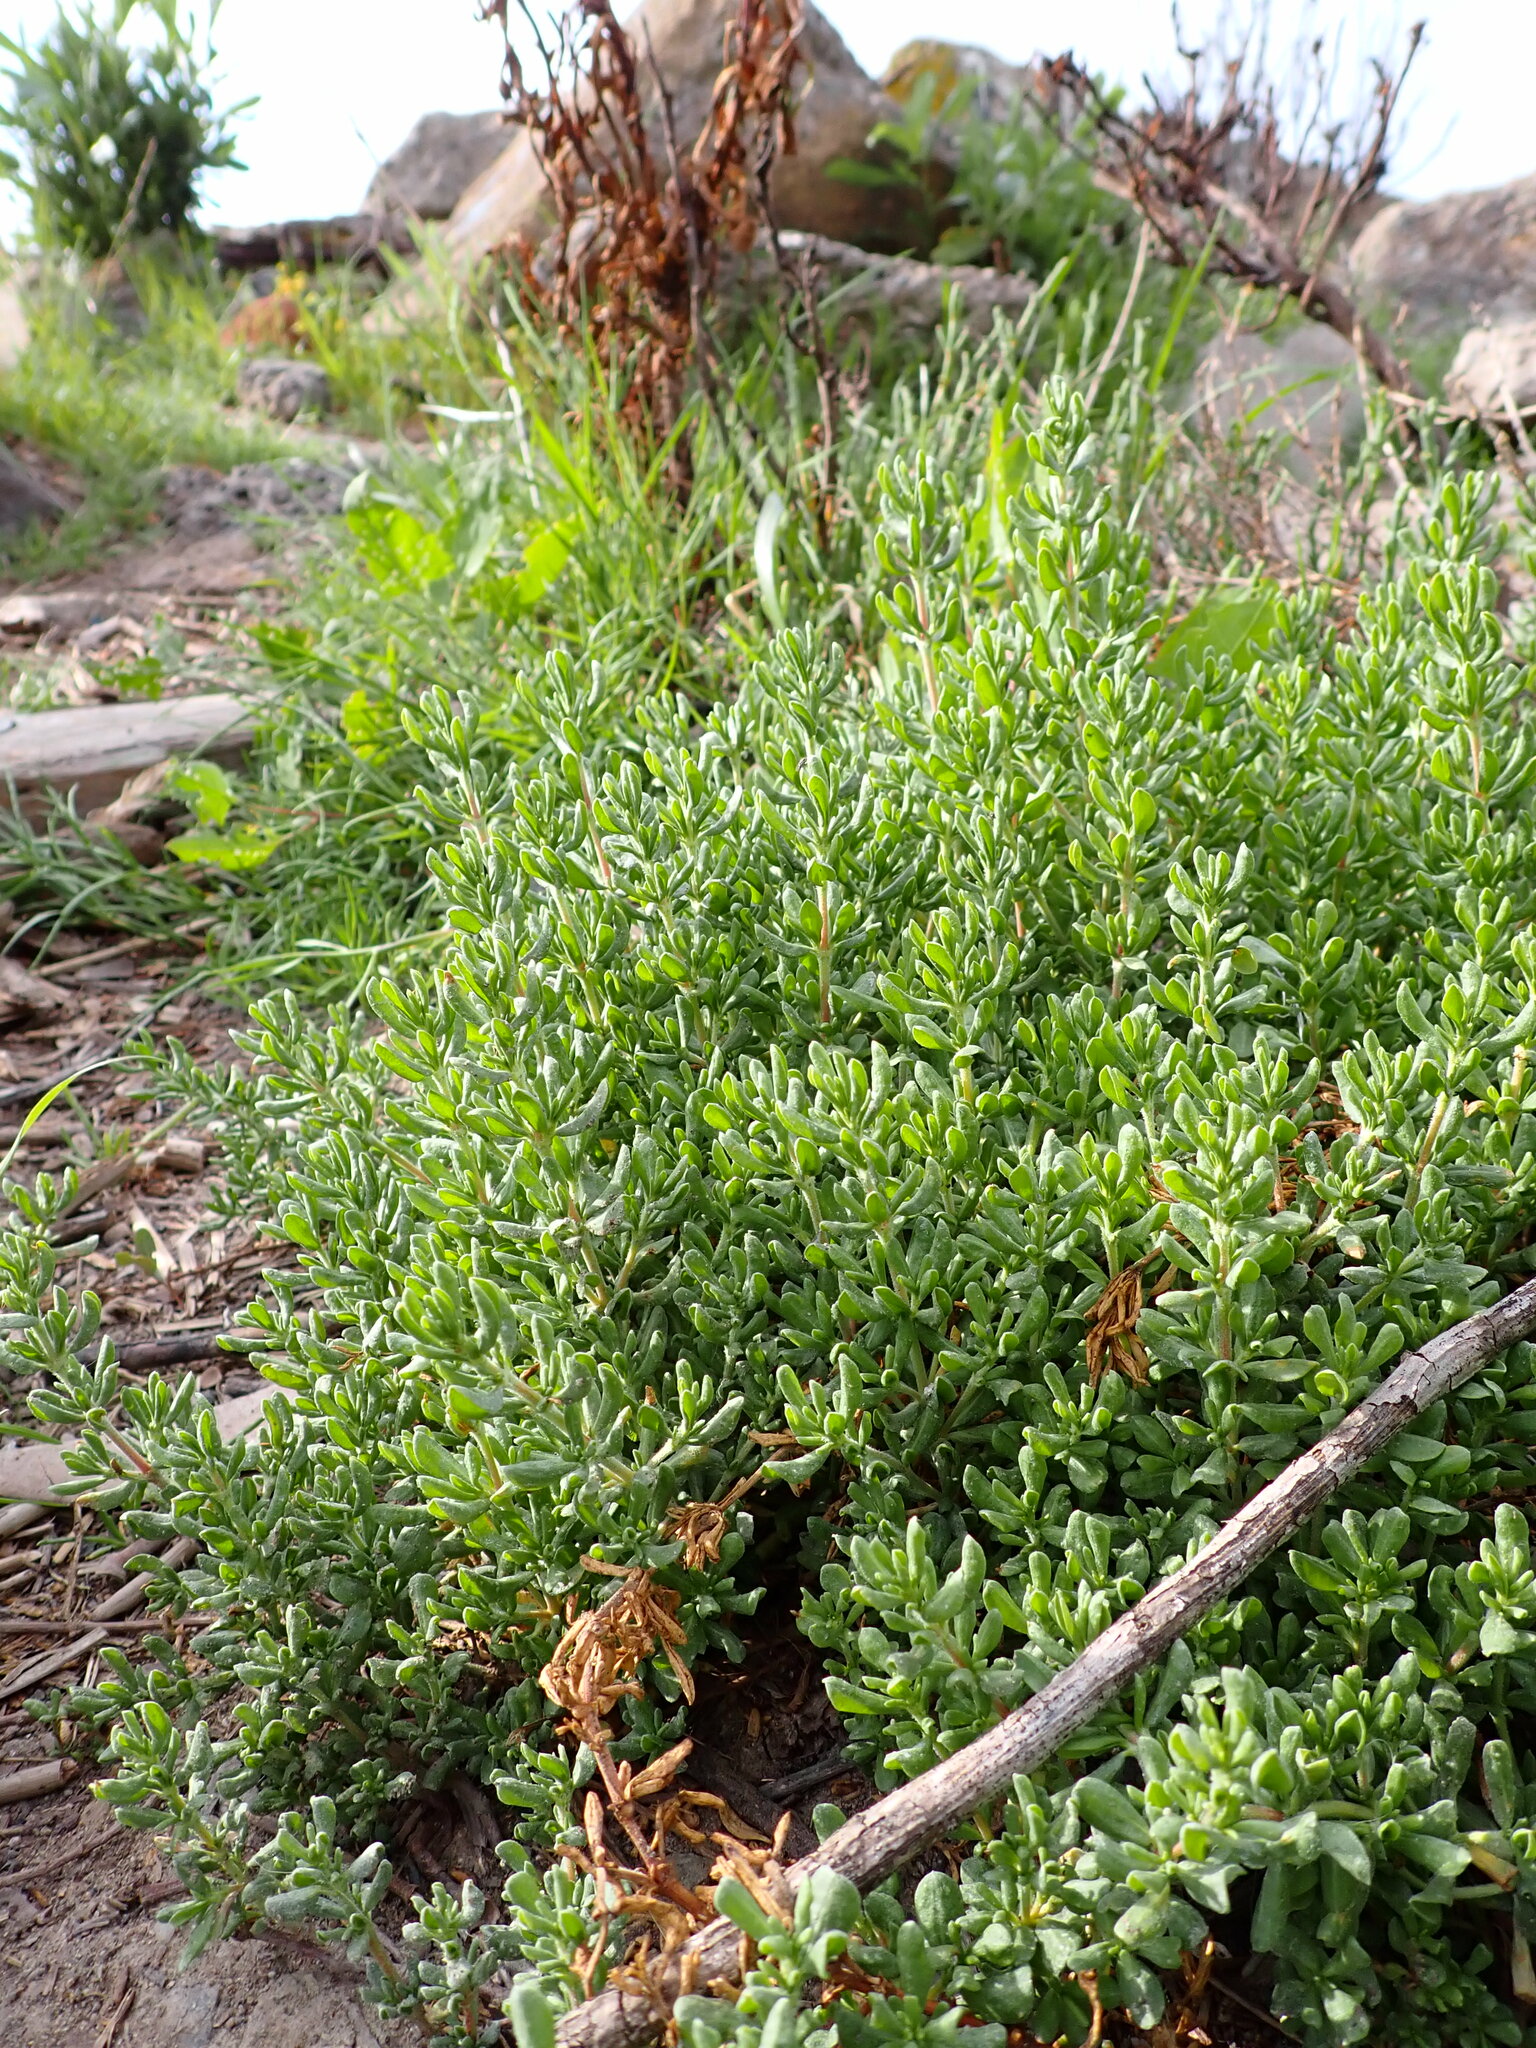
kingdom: Plantae
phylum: Tracheophyta
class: Magnoliopsida
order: Caryophyllales
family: Frankeniaceae
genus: Frankenia
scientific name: Frankenia salina
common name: Alkali seaheath
